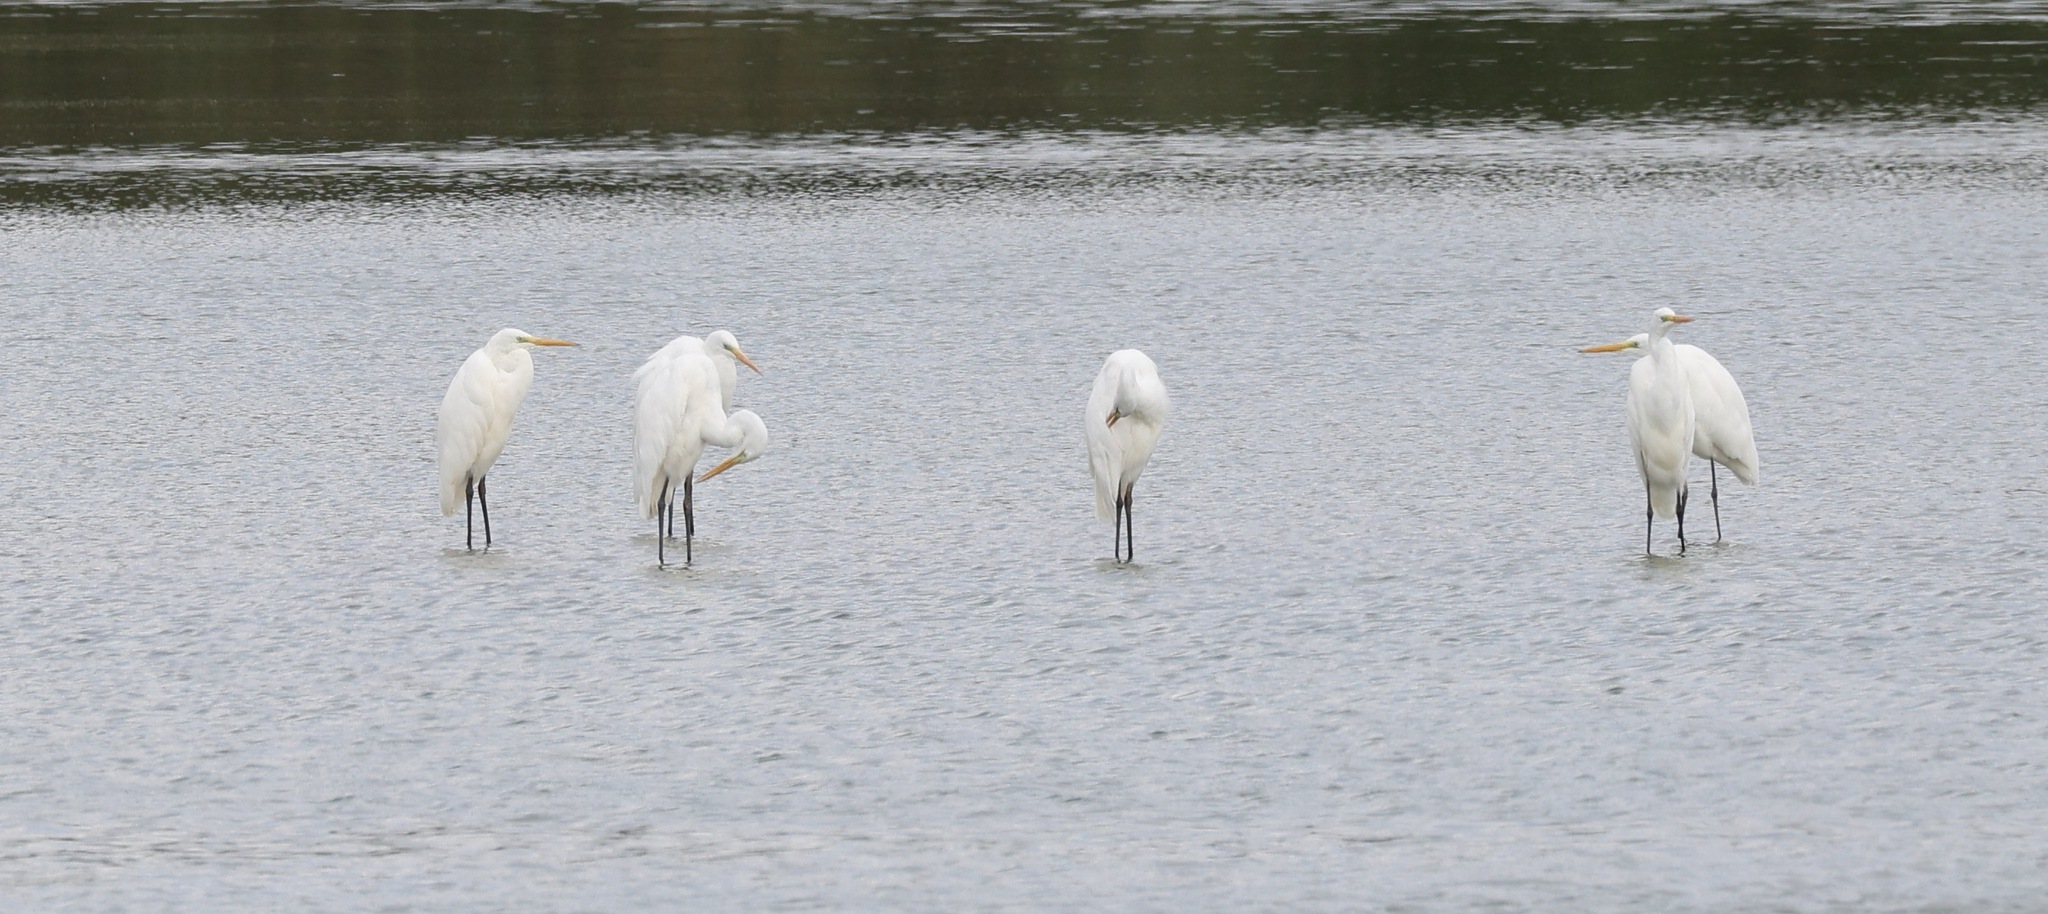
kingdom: Animalia
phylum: Chordata
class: Aves
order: Pelecaniformes
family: Ardeidae
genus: Ardea
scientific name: Ardea alba
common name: Great egret
